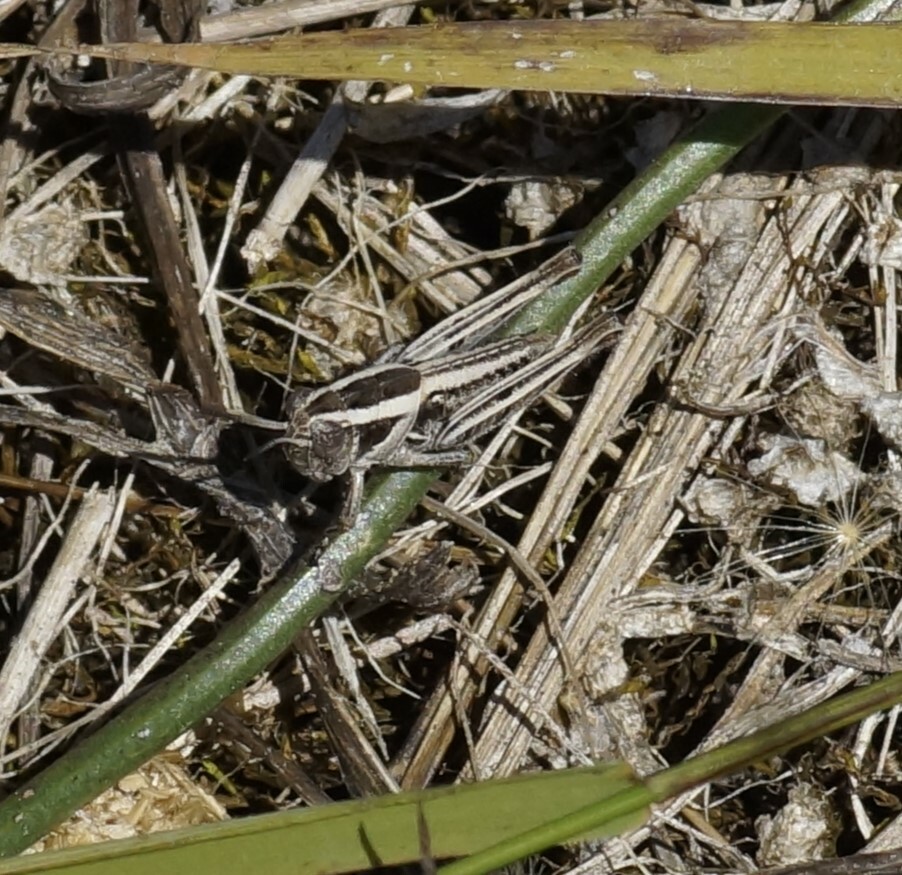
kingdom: Animalia
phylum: Arthropoda
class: Insecta
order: Orthoptera
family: Acrididae
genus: Brachyexarna
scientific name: Brachyexarna lobipennis
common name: Stripe-winged meadow grasshopper
